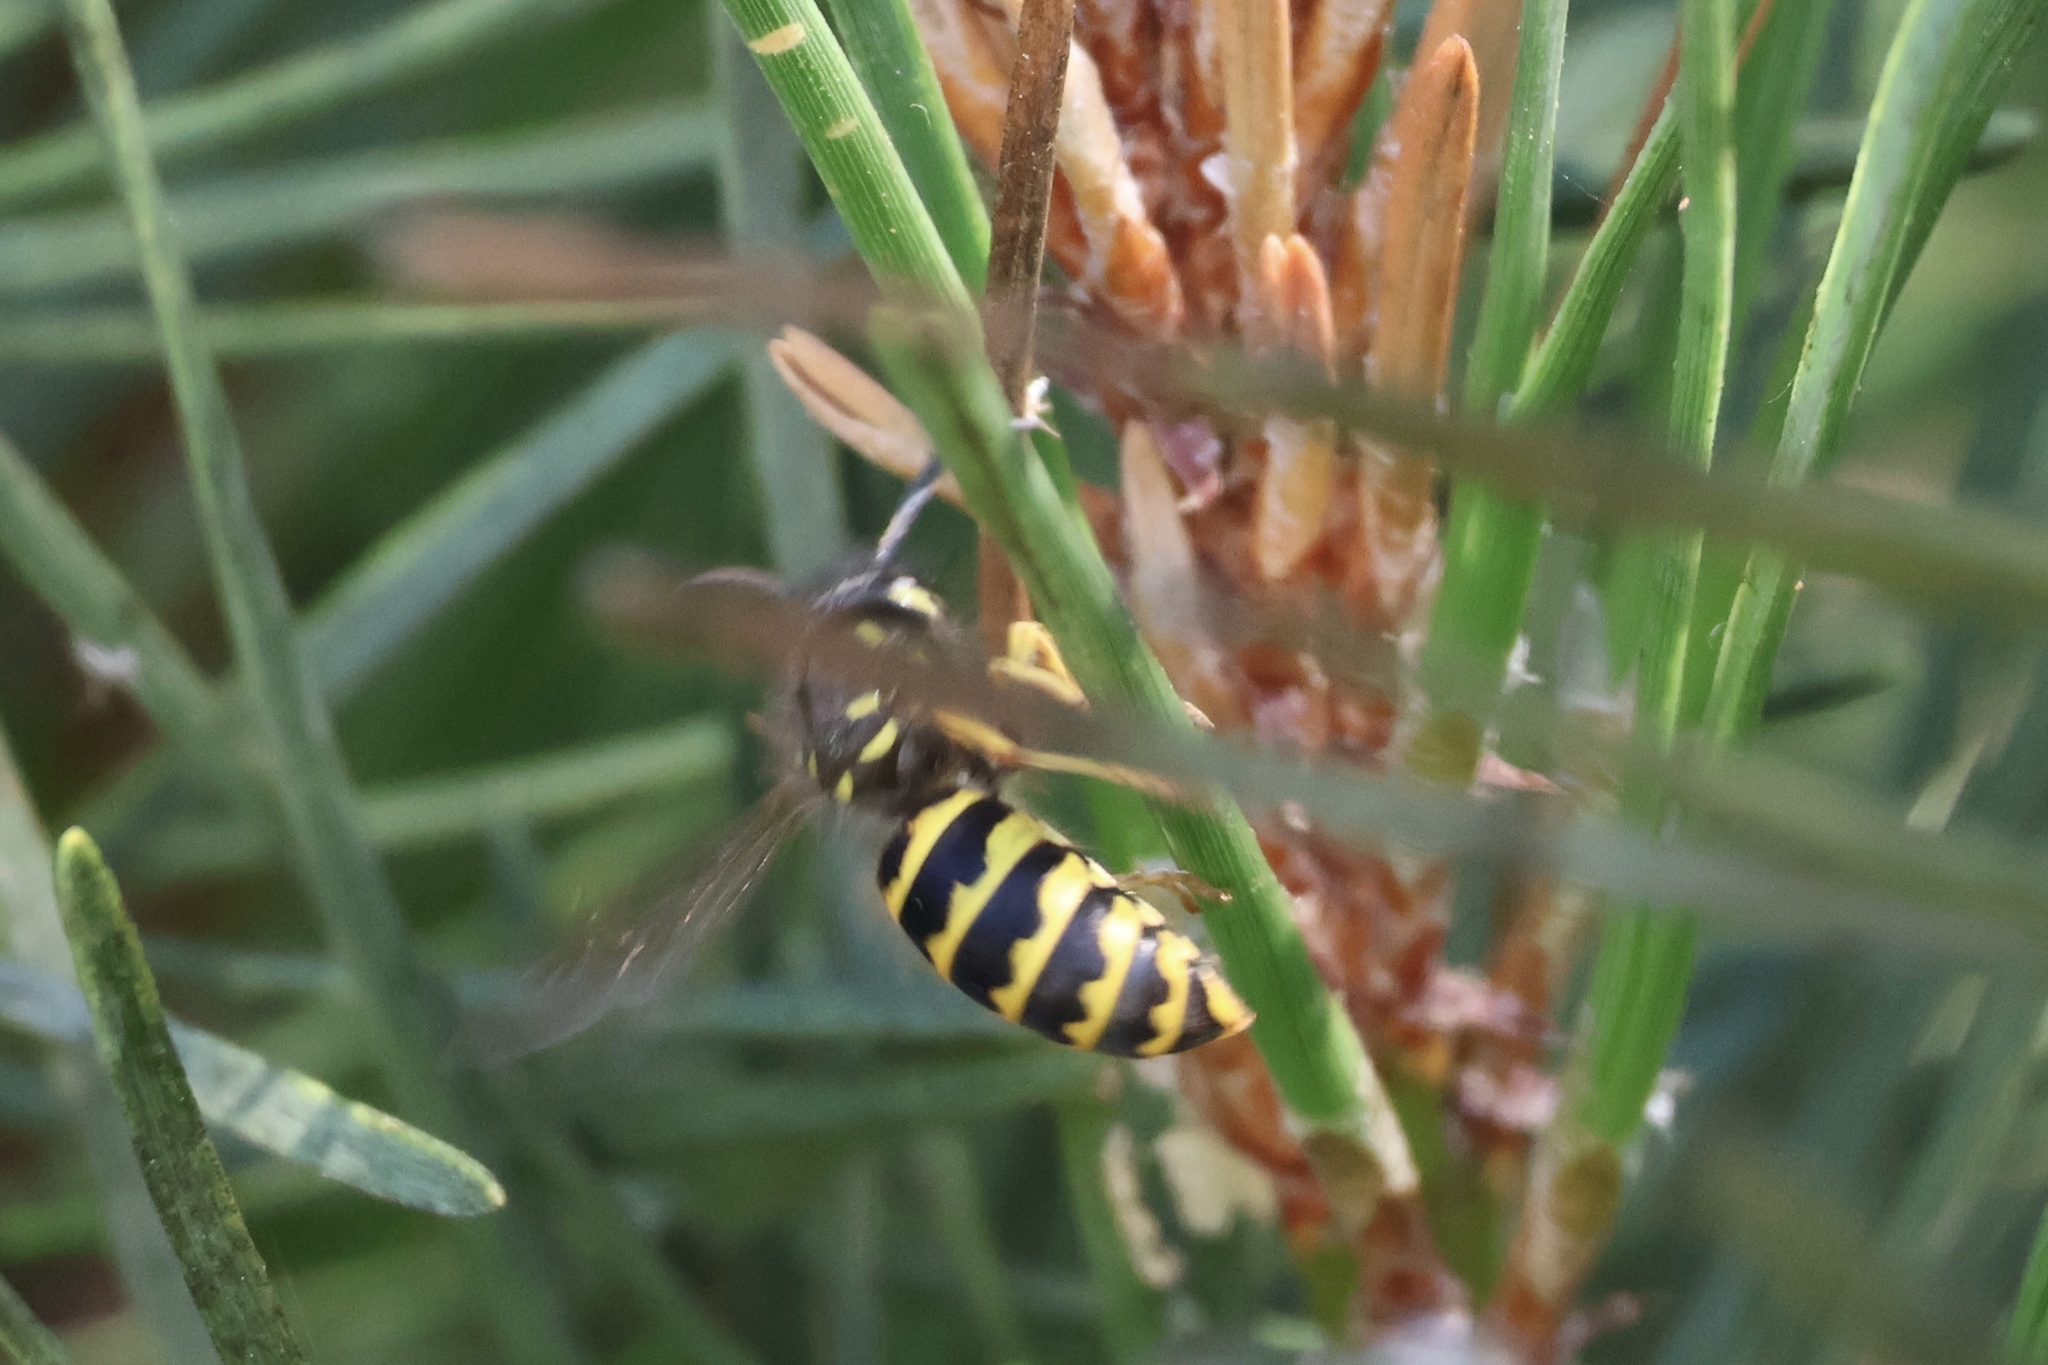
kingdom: Animalia
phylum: Arthropoda
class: Insecta
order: Hymenoptera
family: Vespidae
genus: Vespula
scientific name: Vespula alascensis
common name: Alaska yellowjacket
